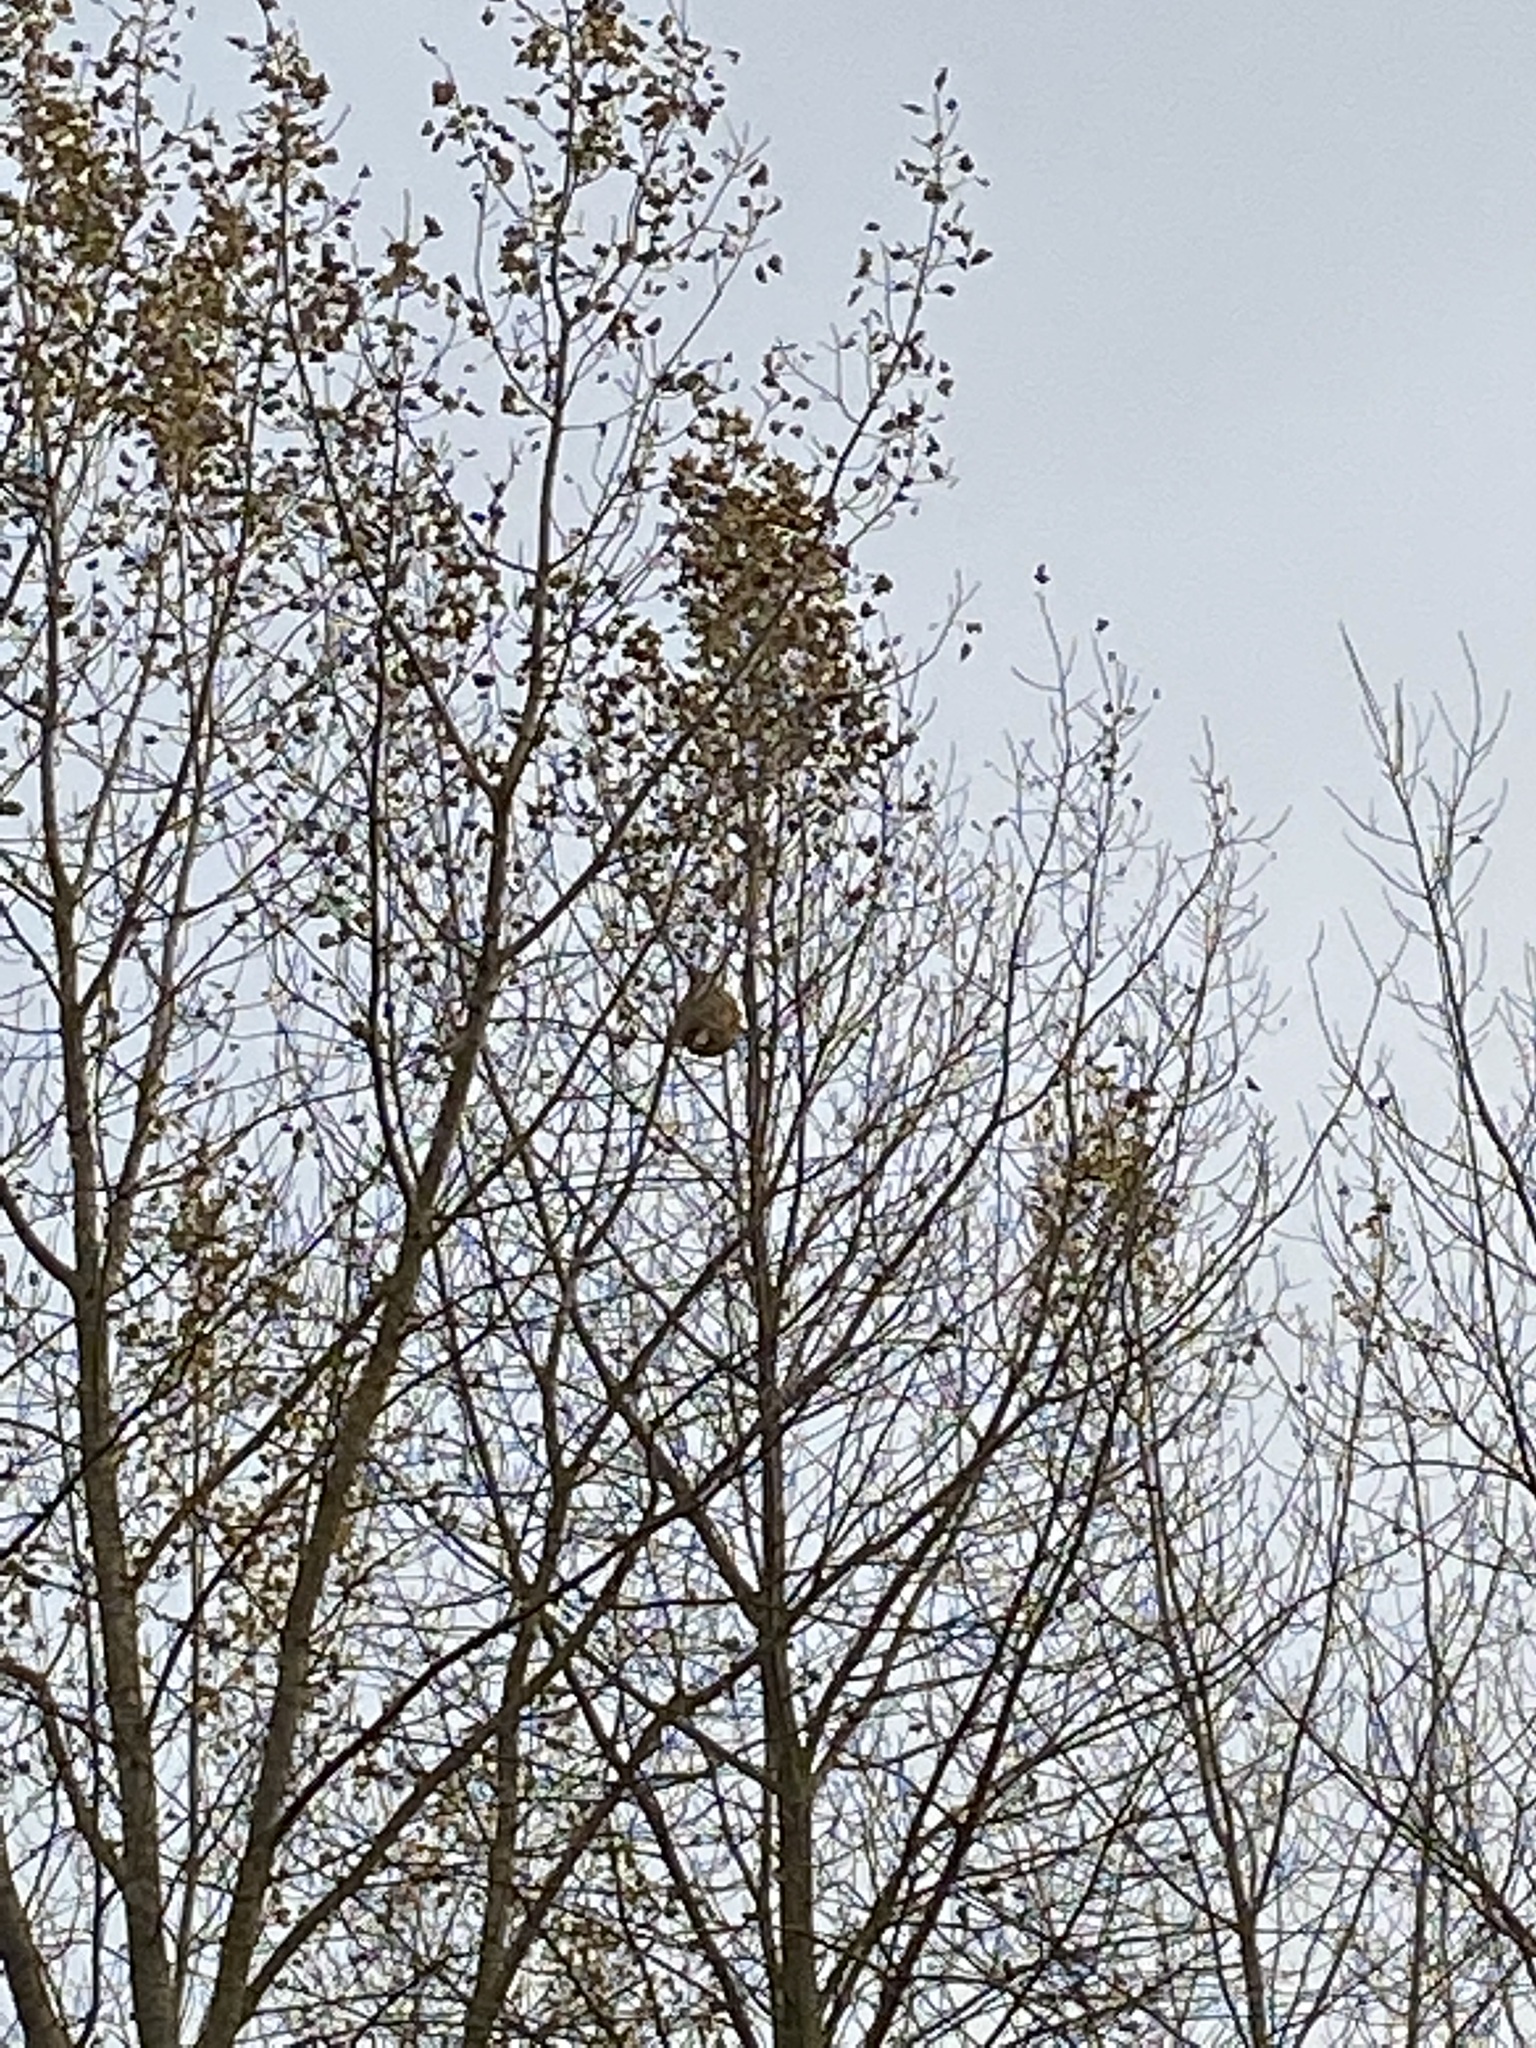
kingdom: Animalia
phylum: Arthropoda
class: Insecta
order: Hymenoptera
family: Vespidae
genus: Vespa
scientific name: Vespa velutina
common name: Asian hornet
